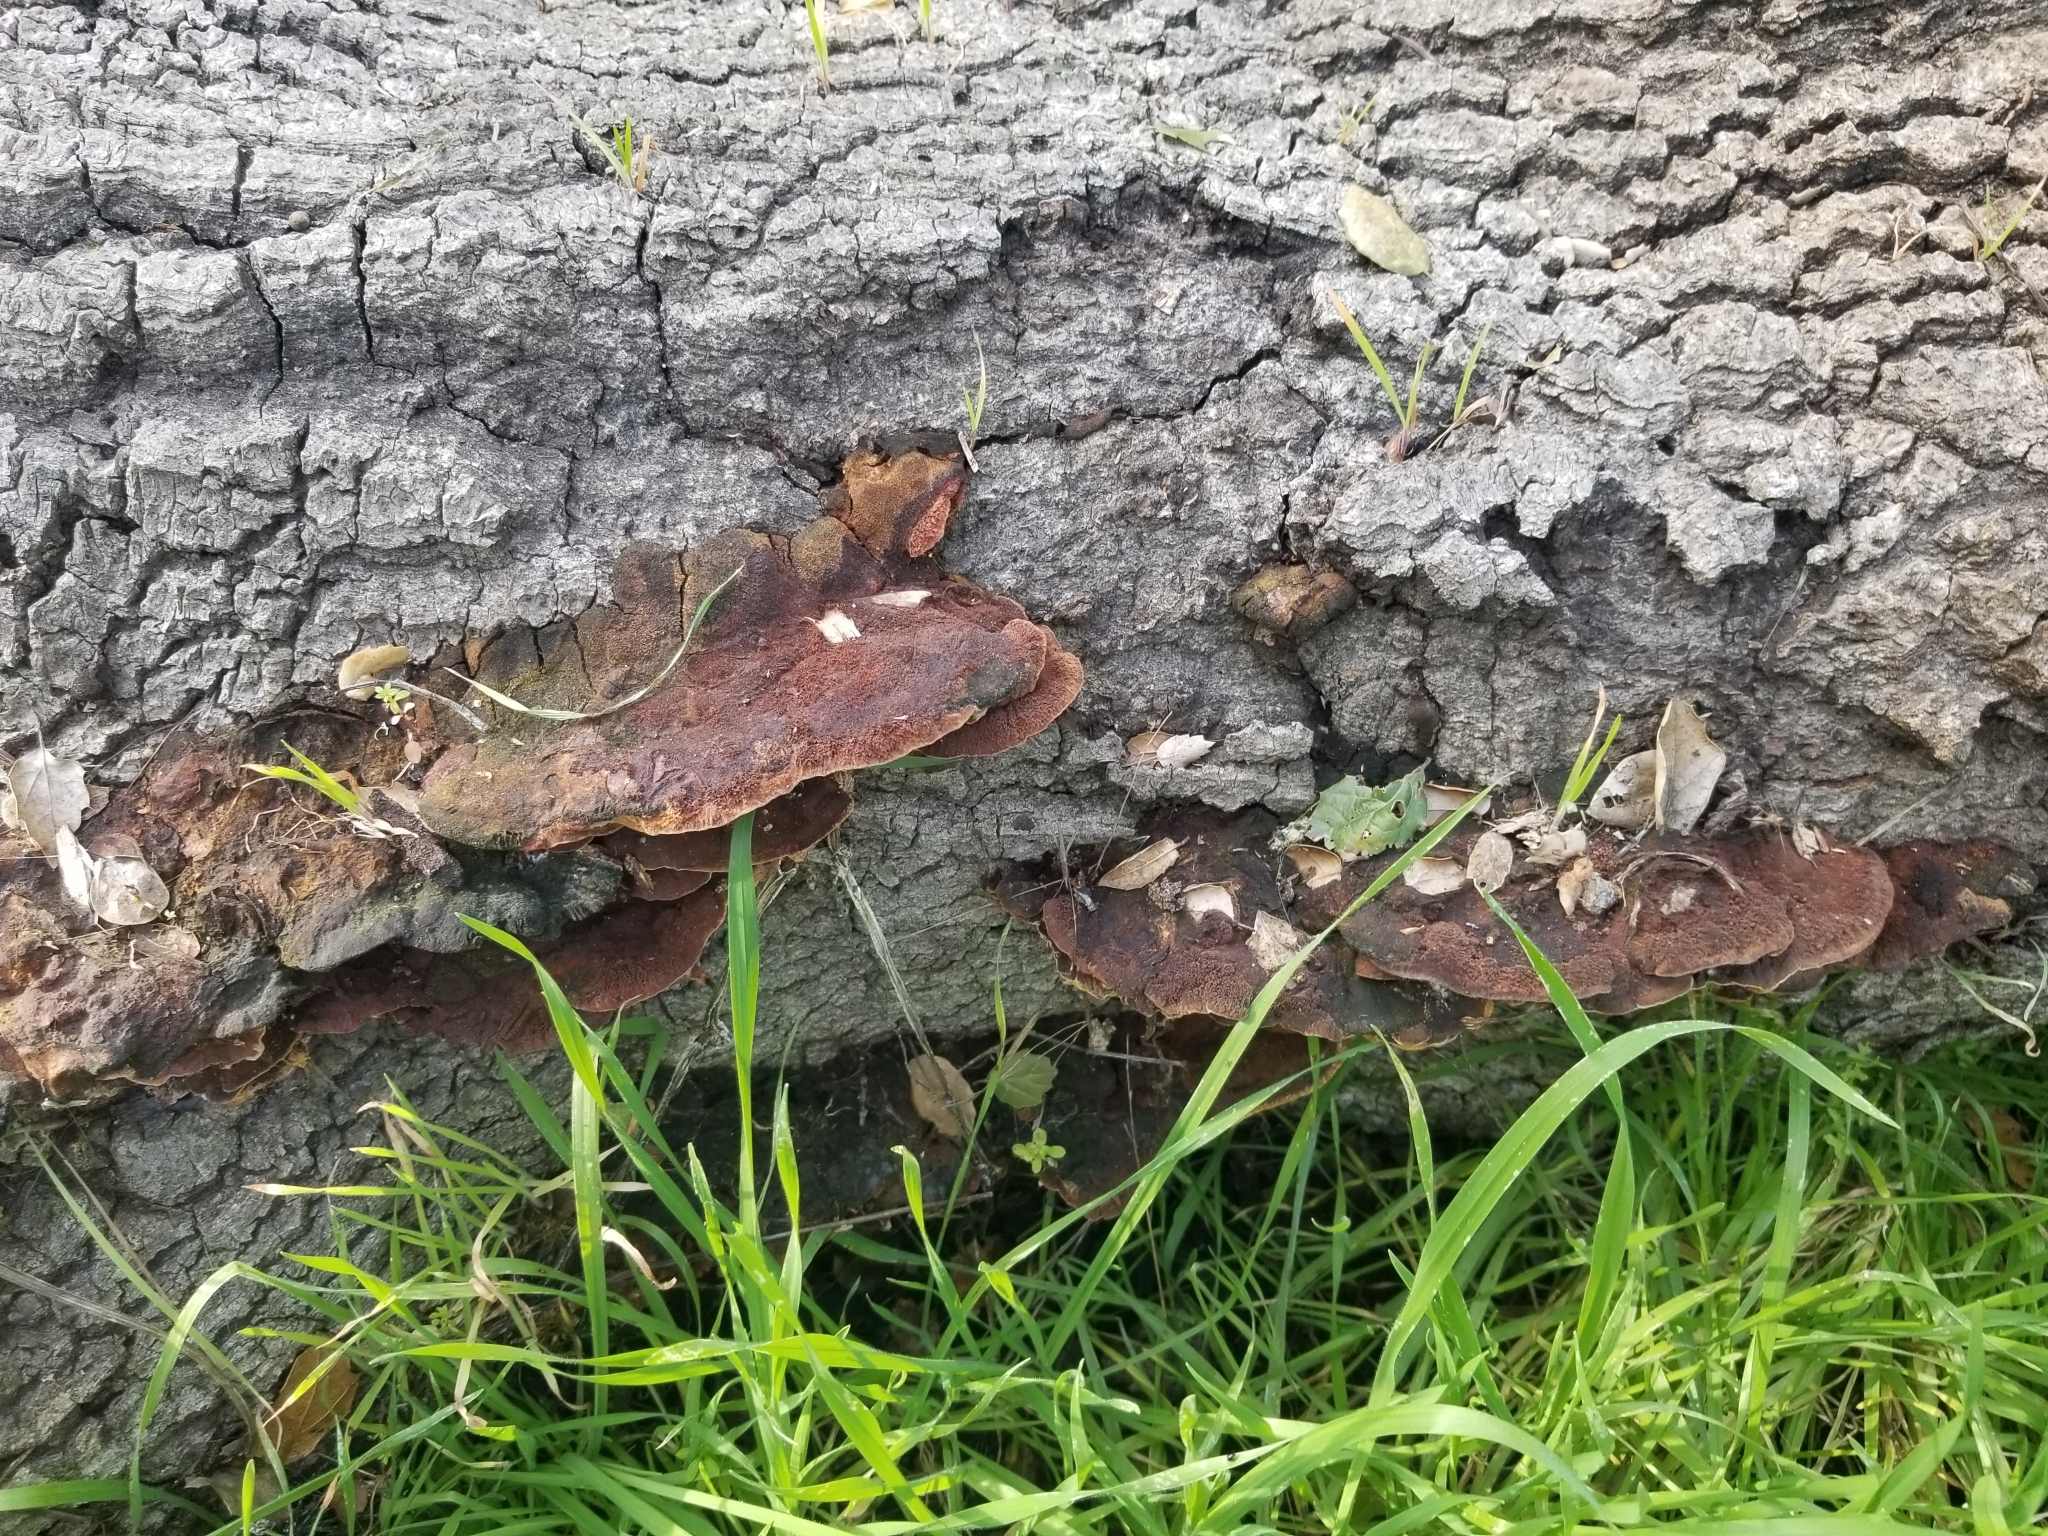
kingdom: Fungi
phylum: Basidiomycota
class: Agaricomycetes
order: Polyporales
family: Polyporaceae
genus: Trametes
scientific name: Trametes versicolor
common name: Turkeytail
